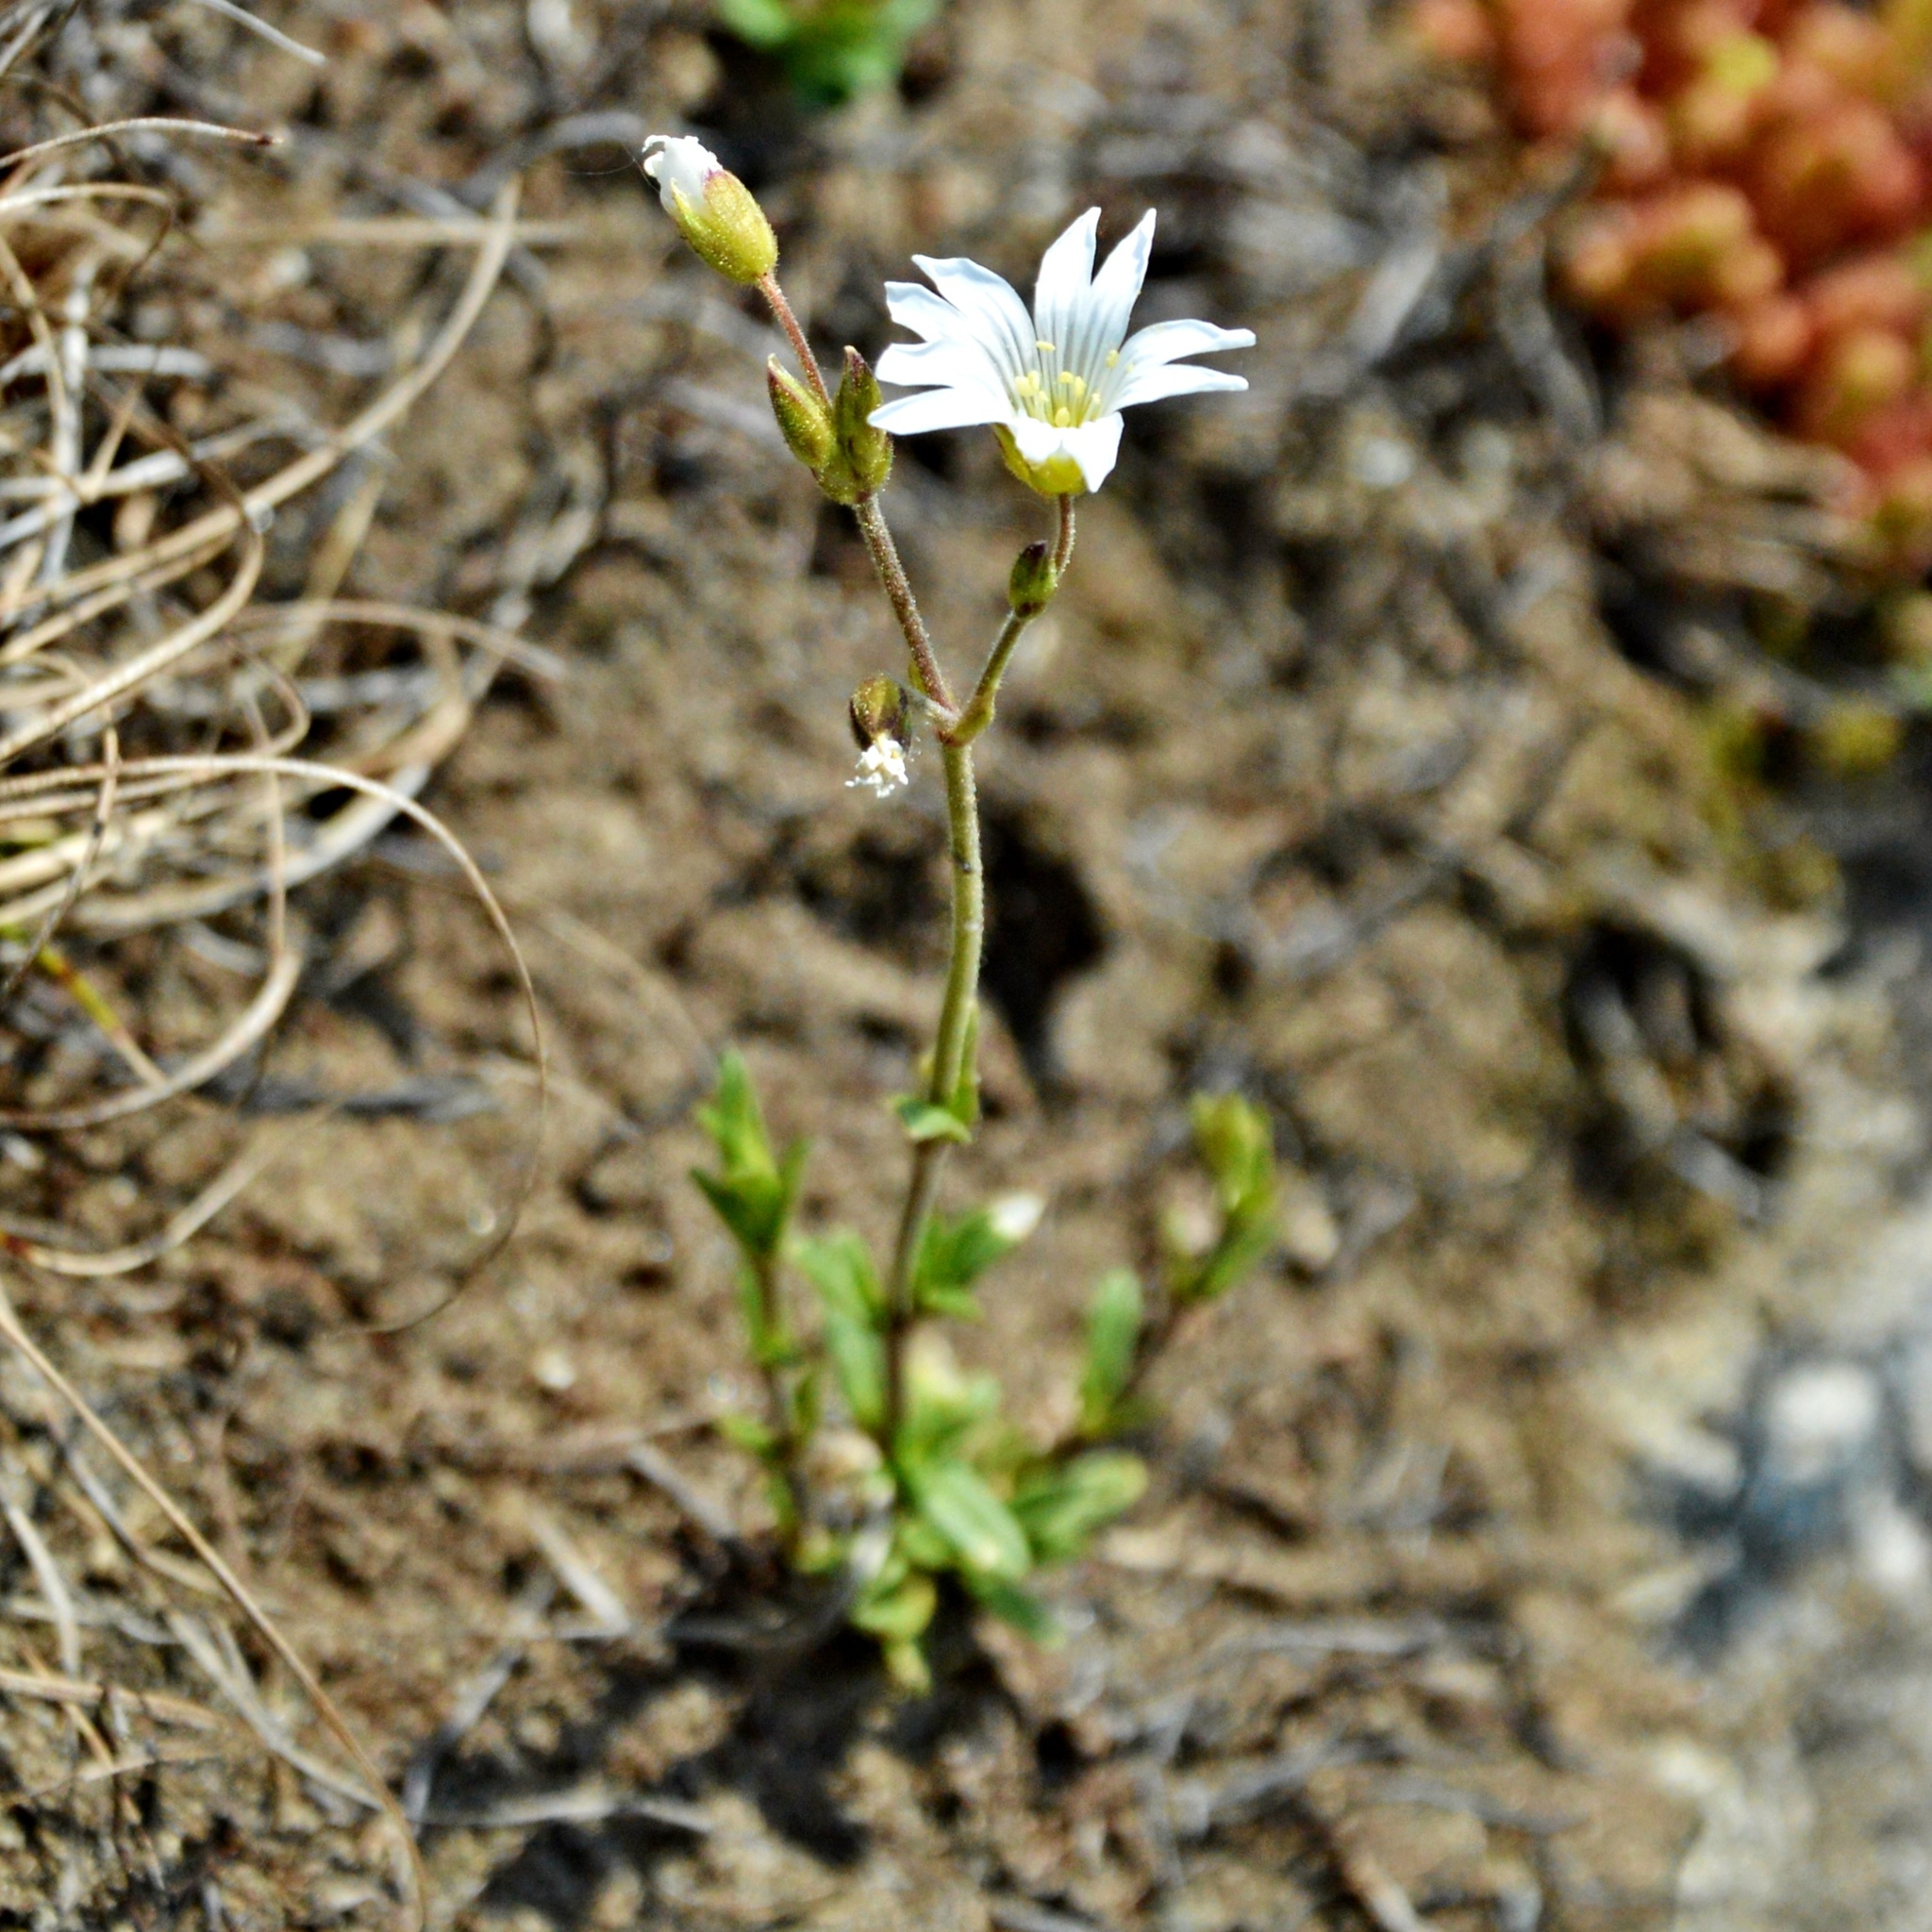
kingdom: Plantae
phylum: Tracheophyta
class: Magnoliopsida
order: Caryophyllales
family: Caryophyllaceae
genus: Cerastium
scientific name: Cerastium arvense
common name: Field mouse-ear
